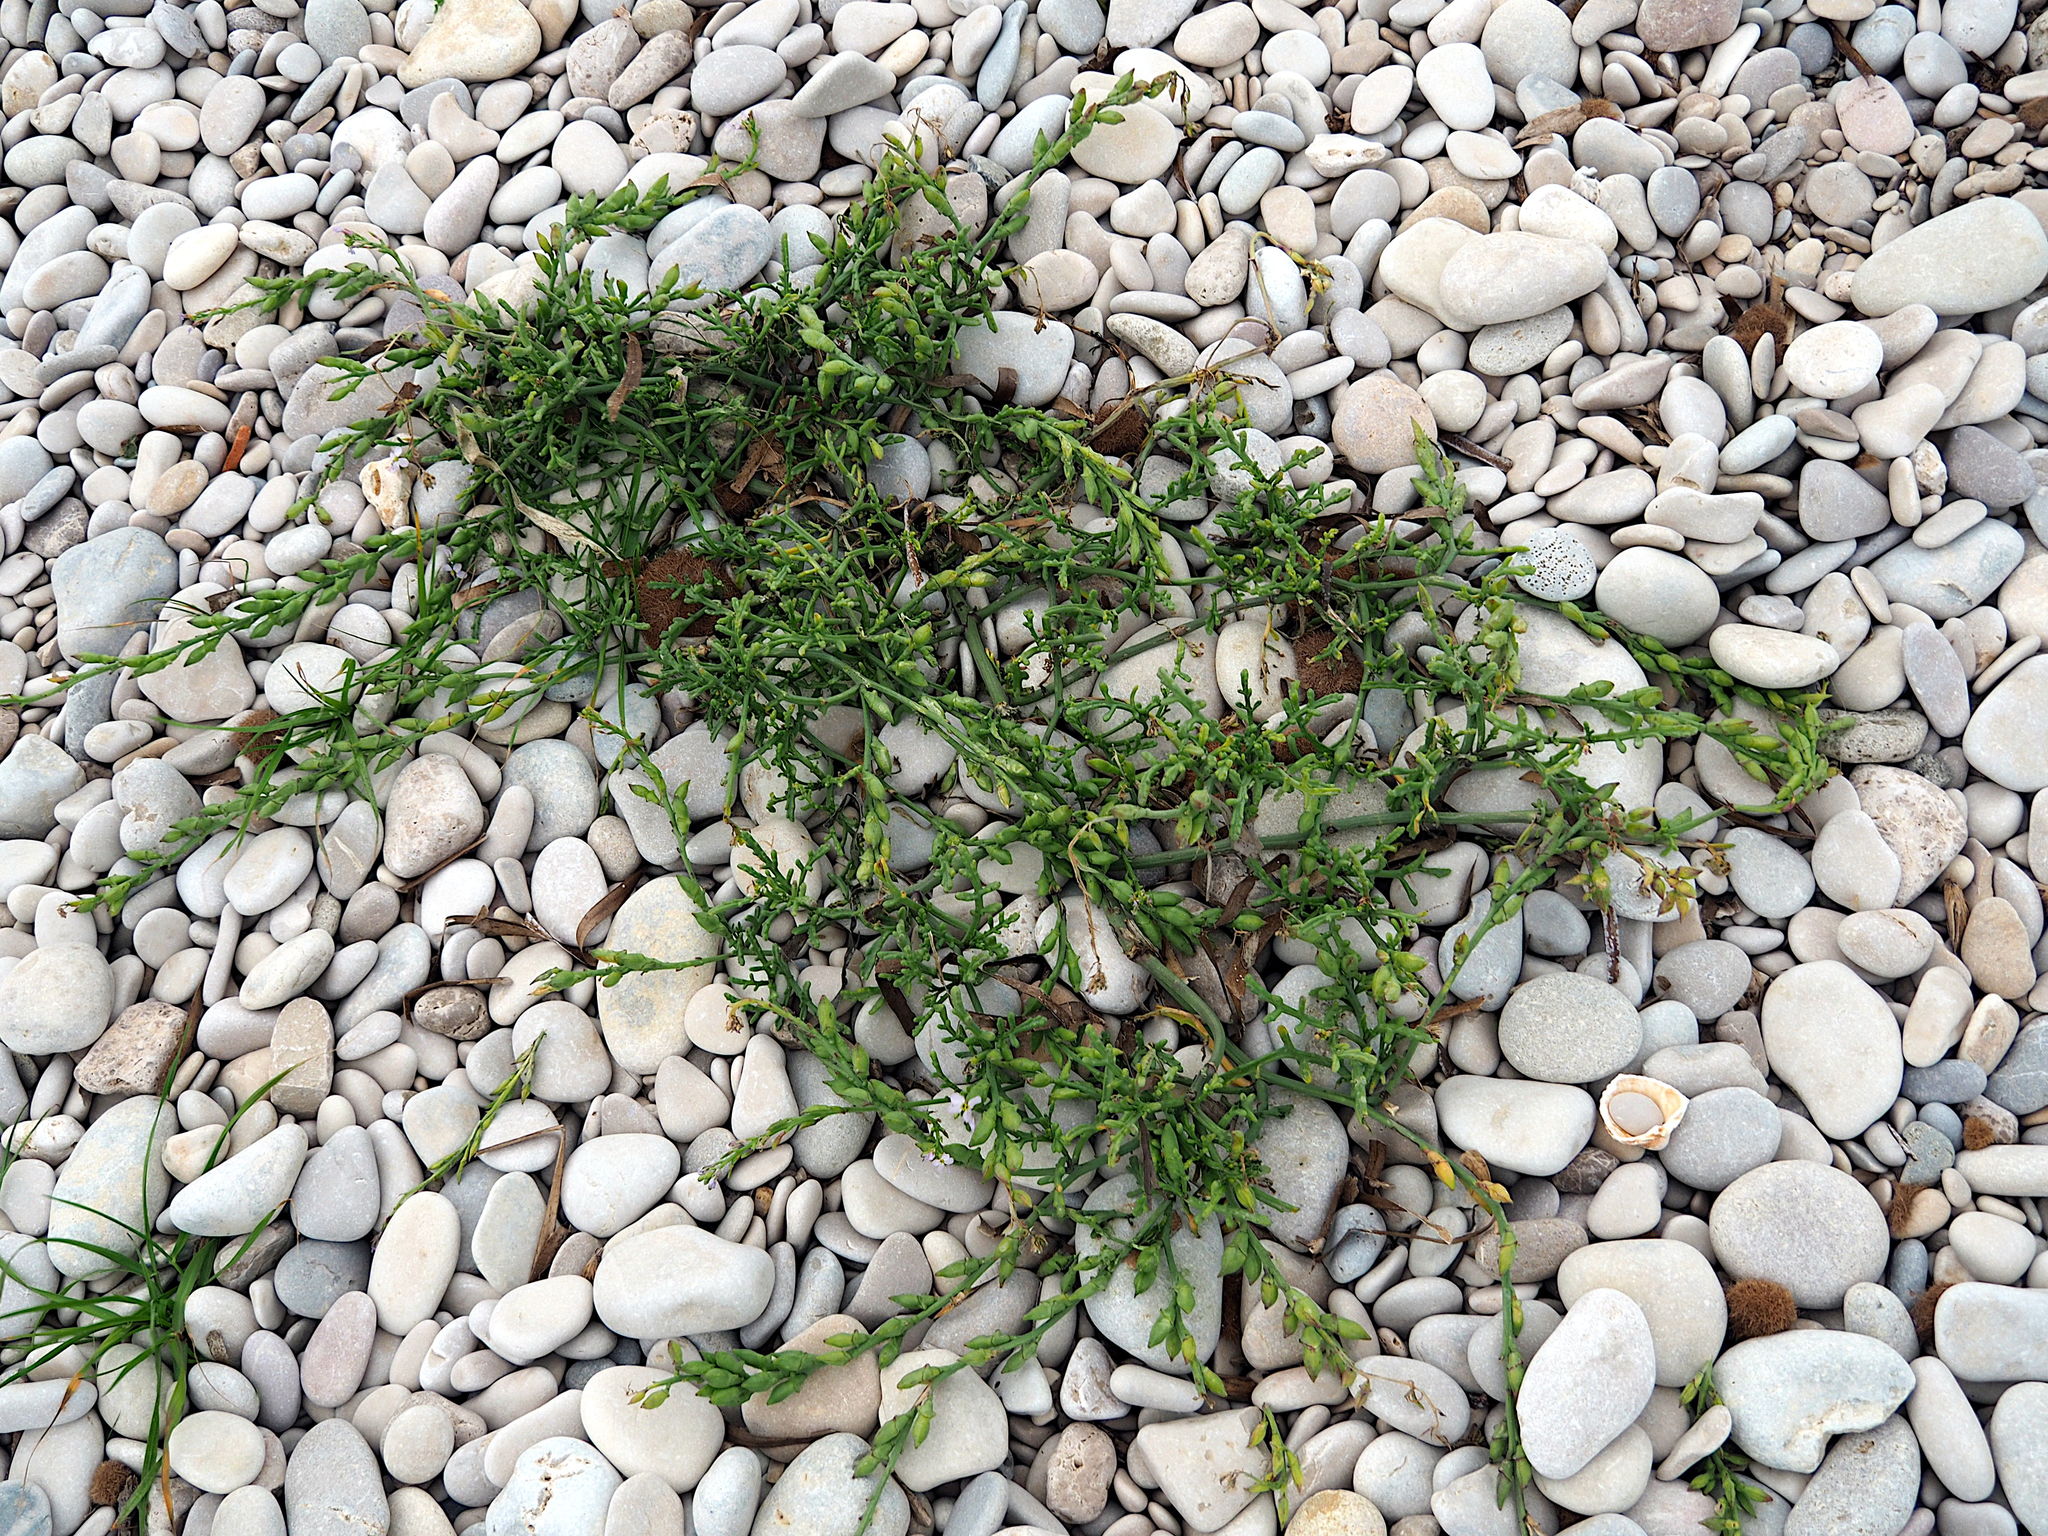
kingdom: Plantae
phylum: Tracheophyta
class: Magnoliopsida
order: Brassicales
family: Brassicaceae
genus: Cakile
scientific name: Cakile maritima
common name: Sea rocket
